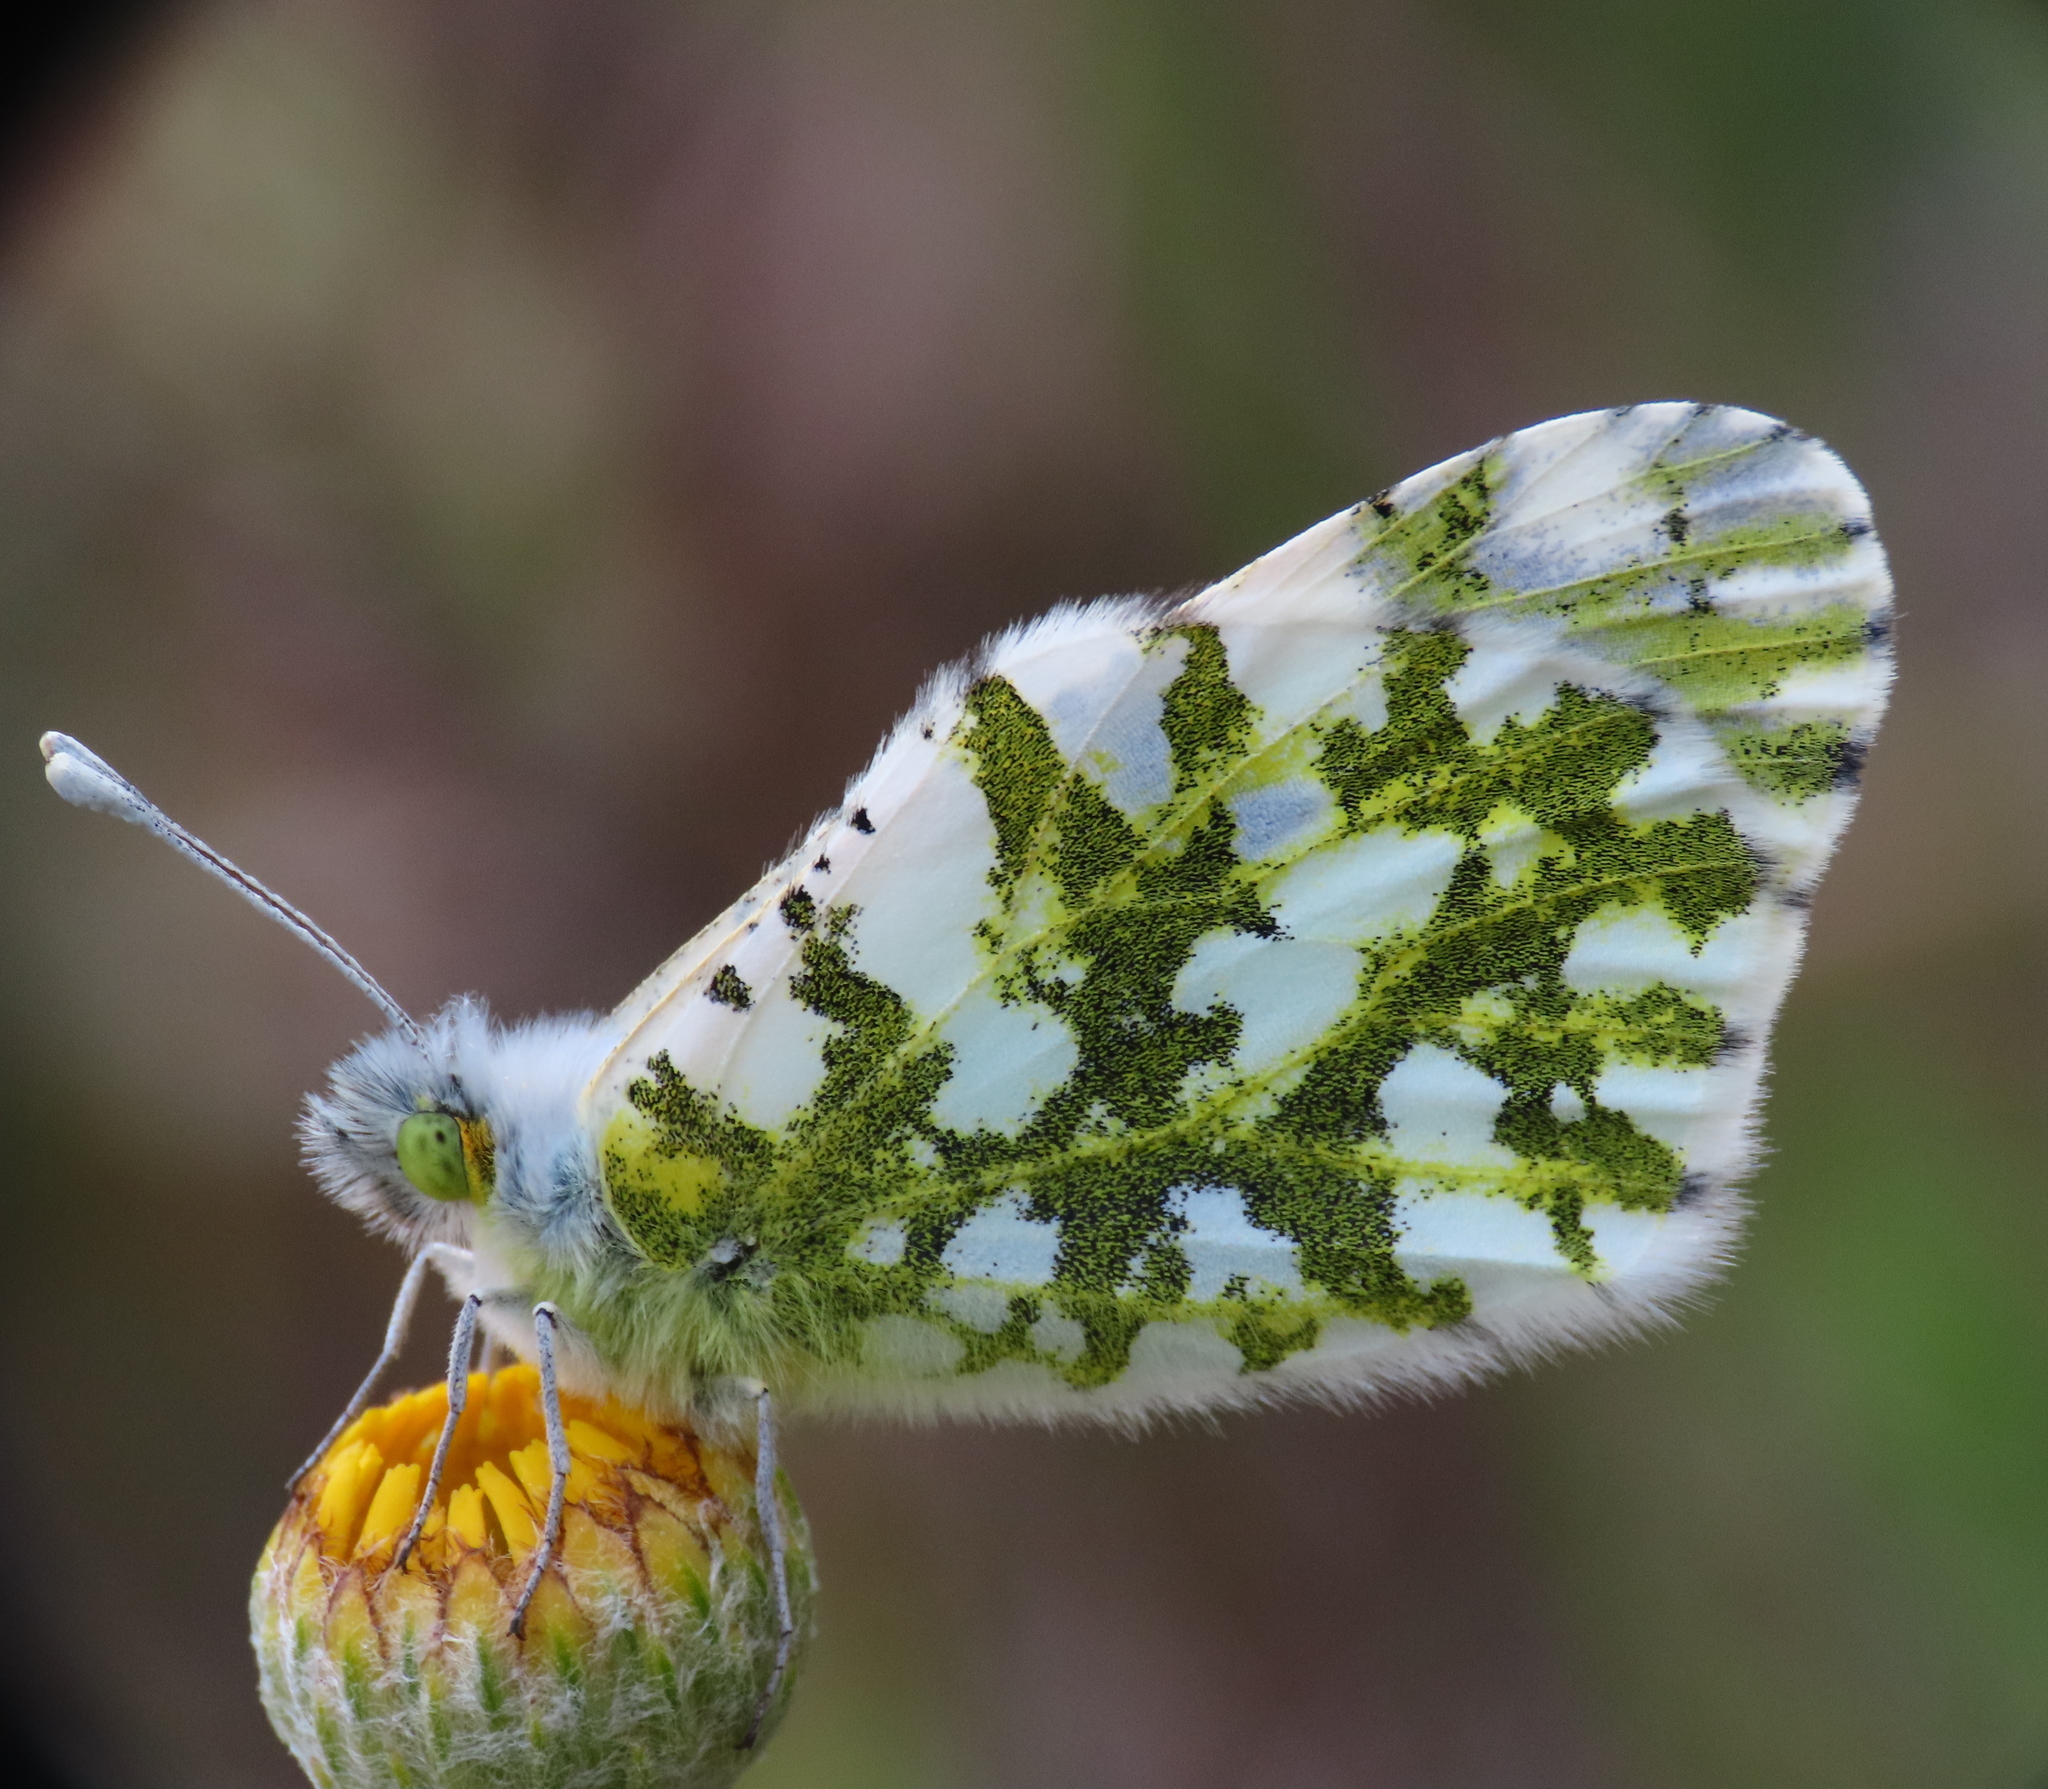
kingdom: Animalia
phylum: Arthropoda
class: Insecta
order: Lepidoptera
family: Pieridae
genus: Euchloe
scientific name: Euchloe ausonia
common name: Eastern dappled white
